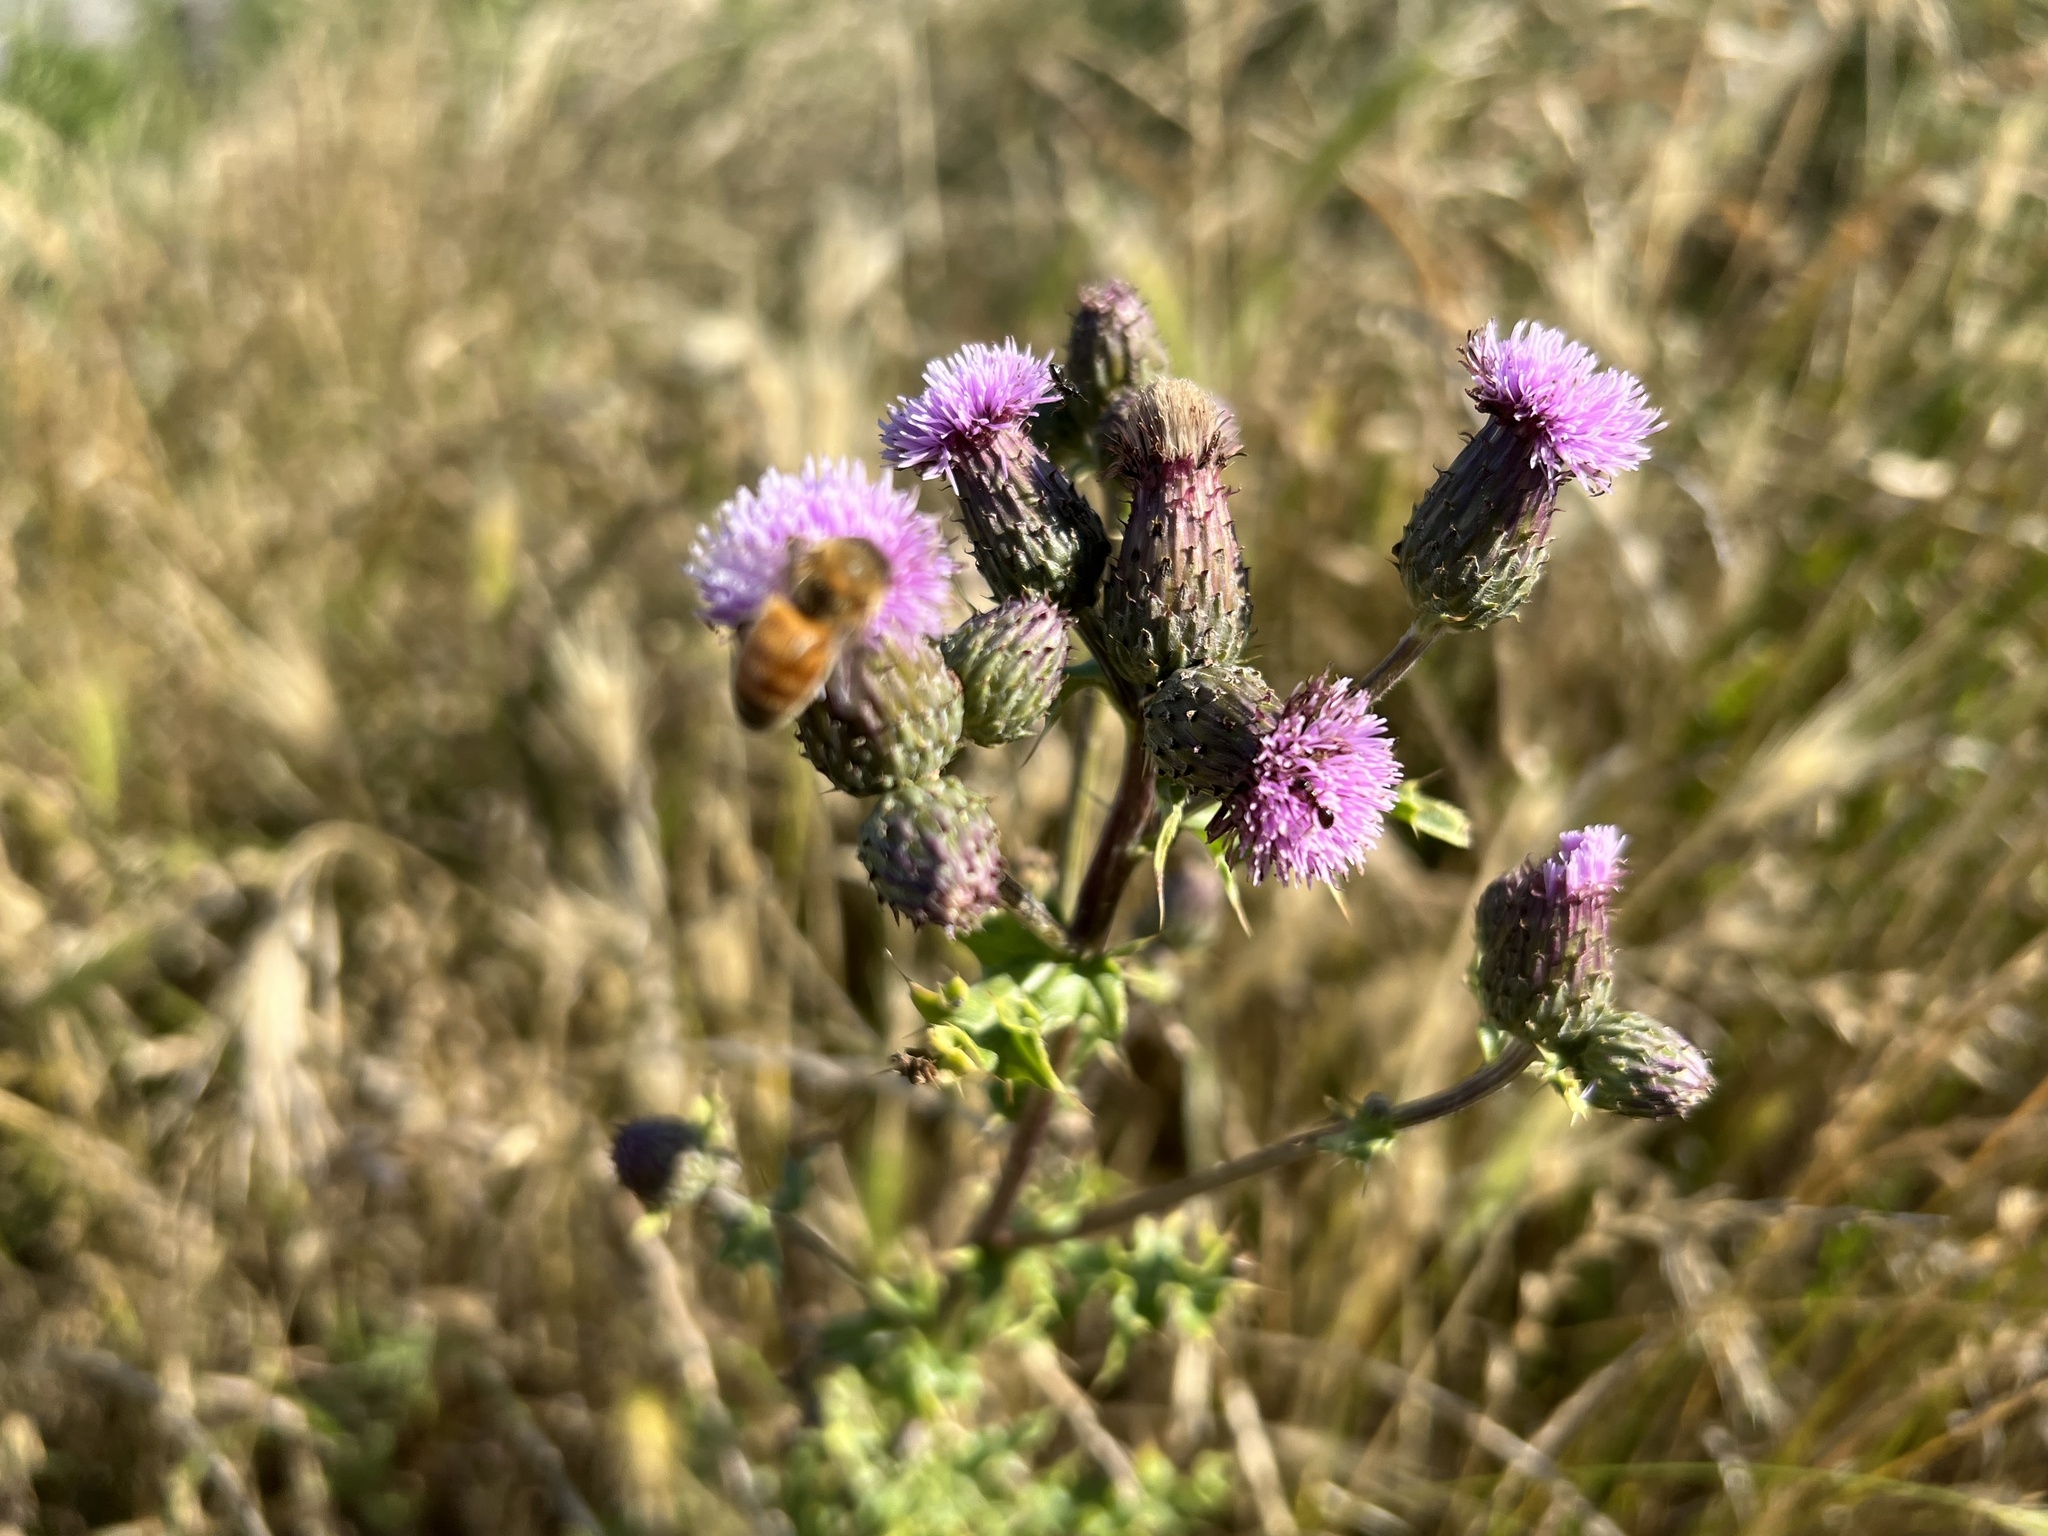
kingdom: Animalia
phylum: Arthropoda
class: Insecta
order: Hymenoptera
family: Apidae
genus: Apis
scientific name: Apis mellifera
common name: Honey bee
